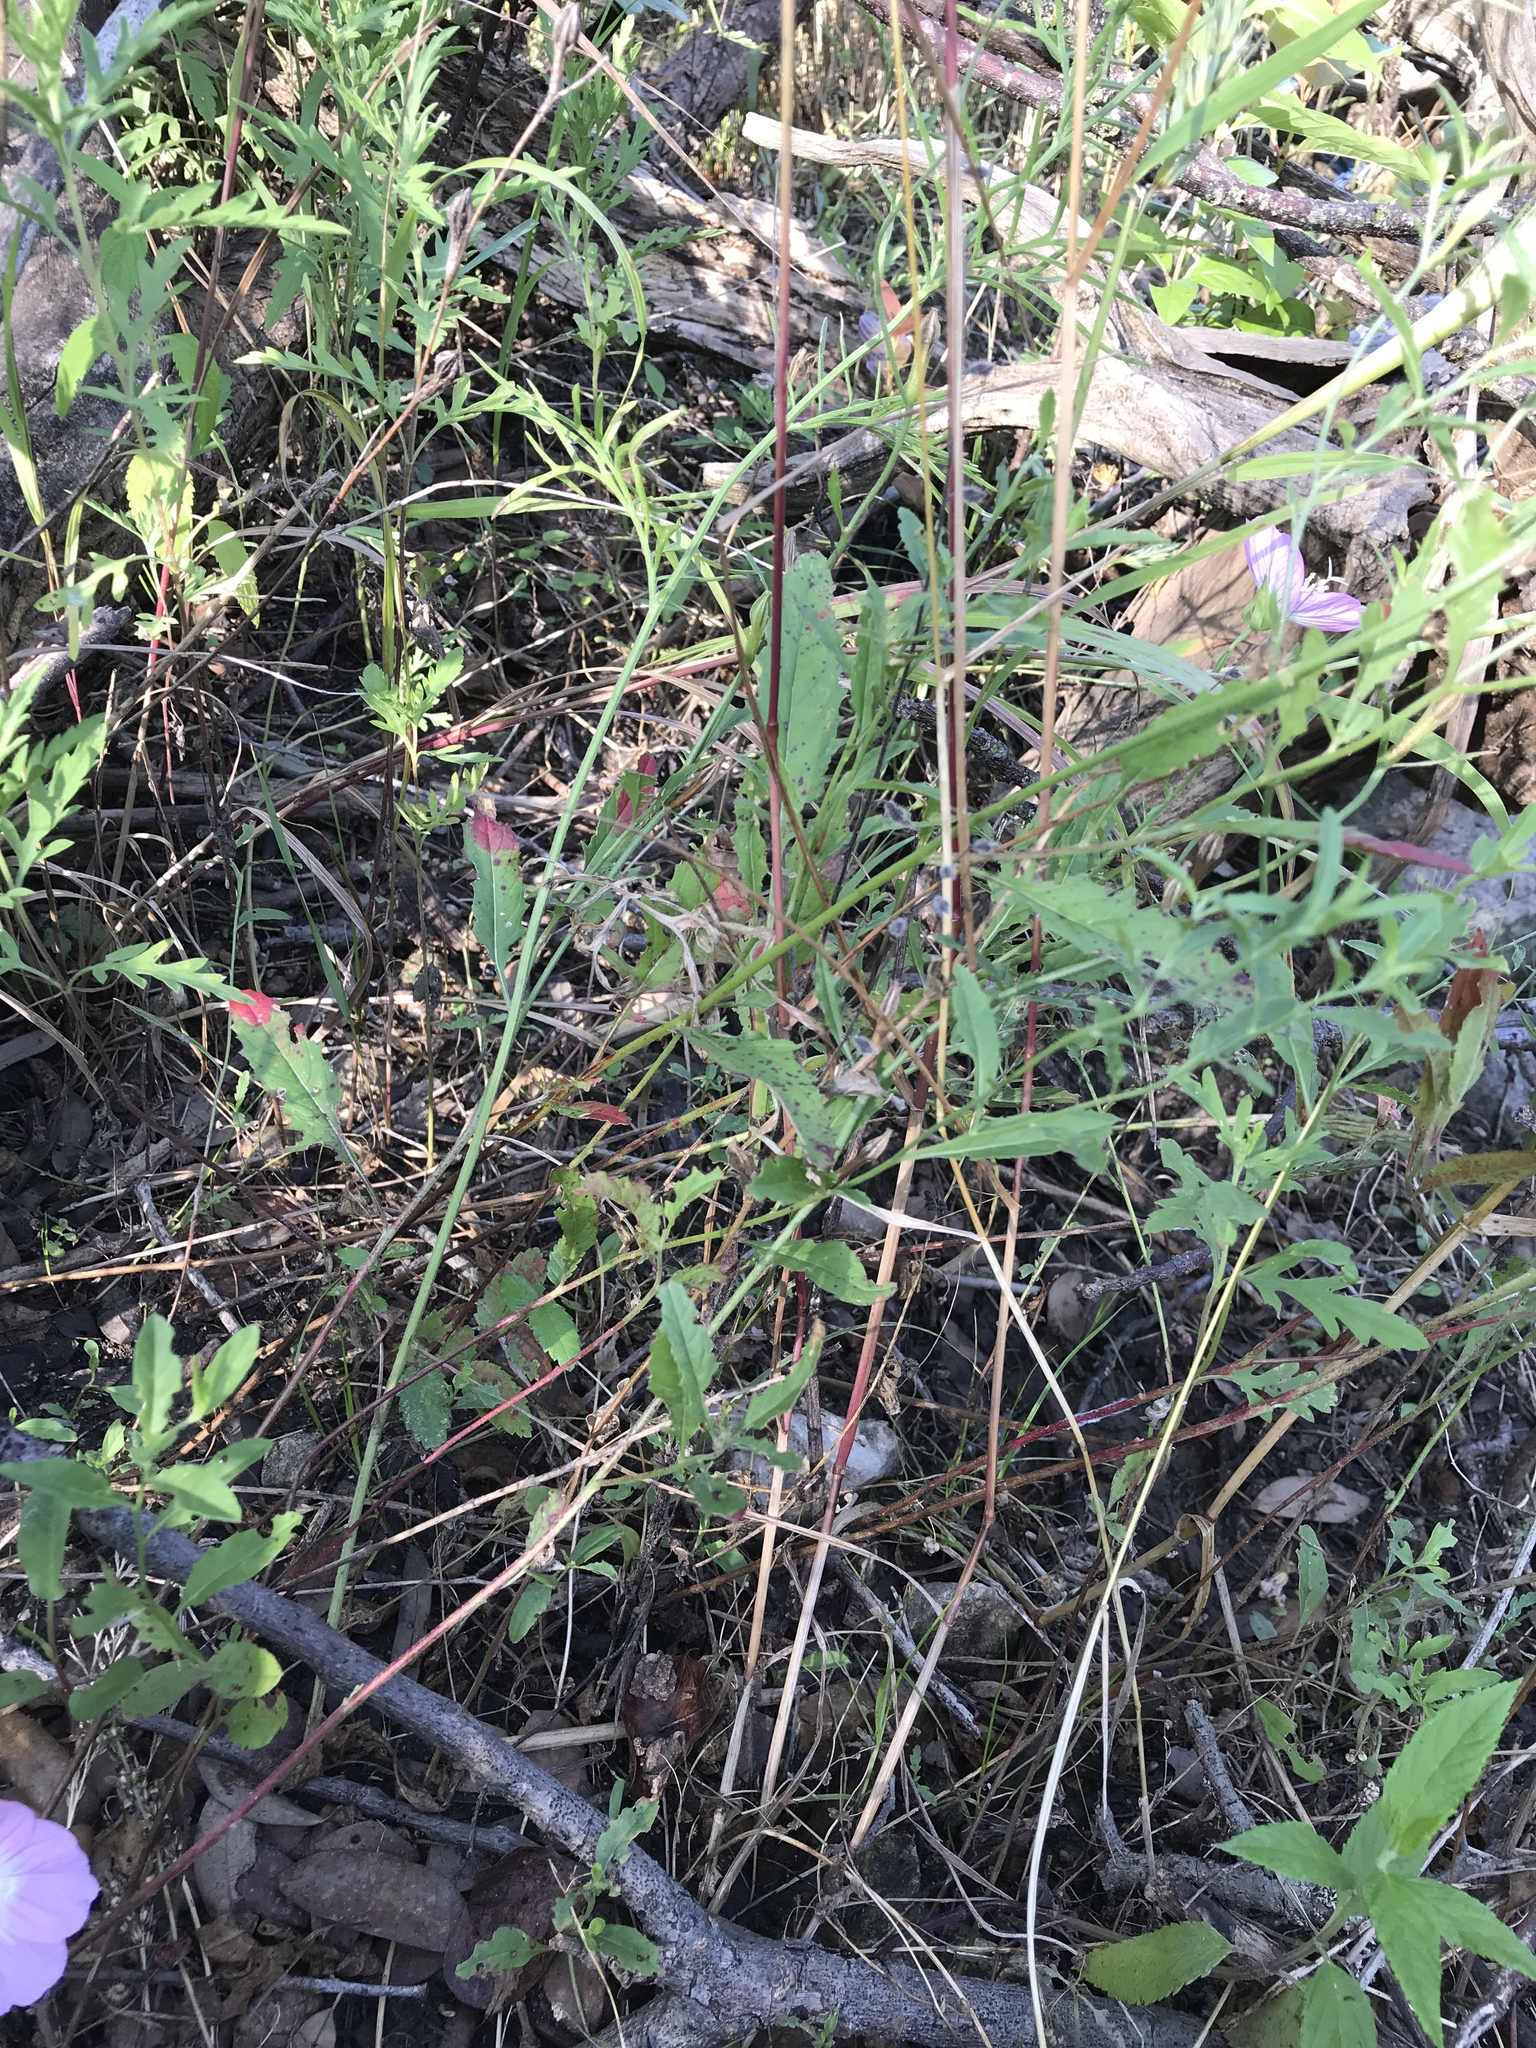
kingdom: Plantae
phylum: Tracheophyta
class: Magnoliopsida
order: Myrtales
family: Onagraceae
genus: Oenothera
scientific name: Oenothera speciosa
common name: White evening-primrose
